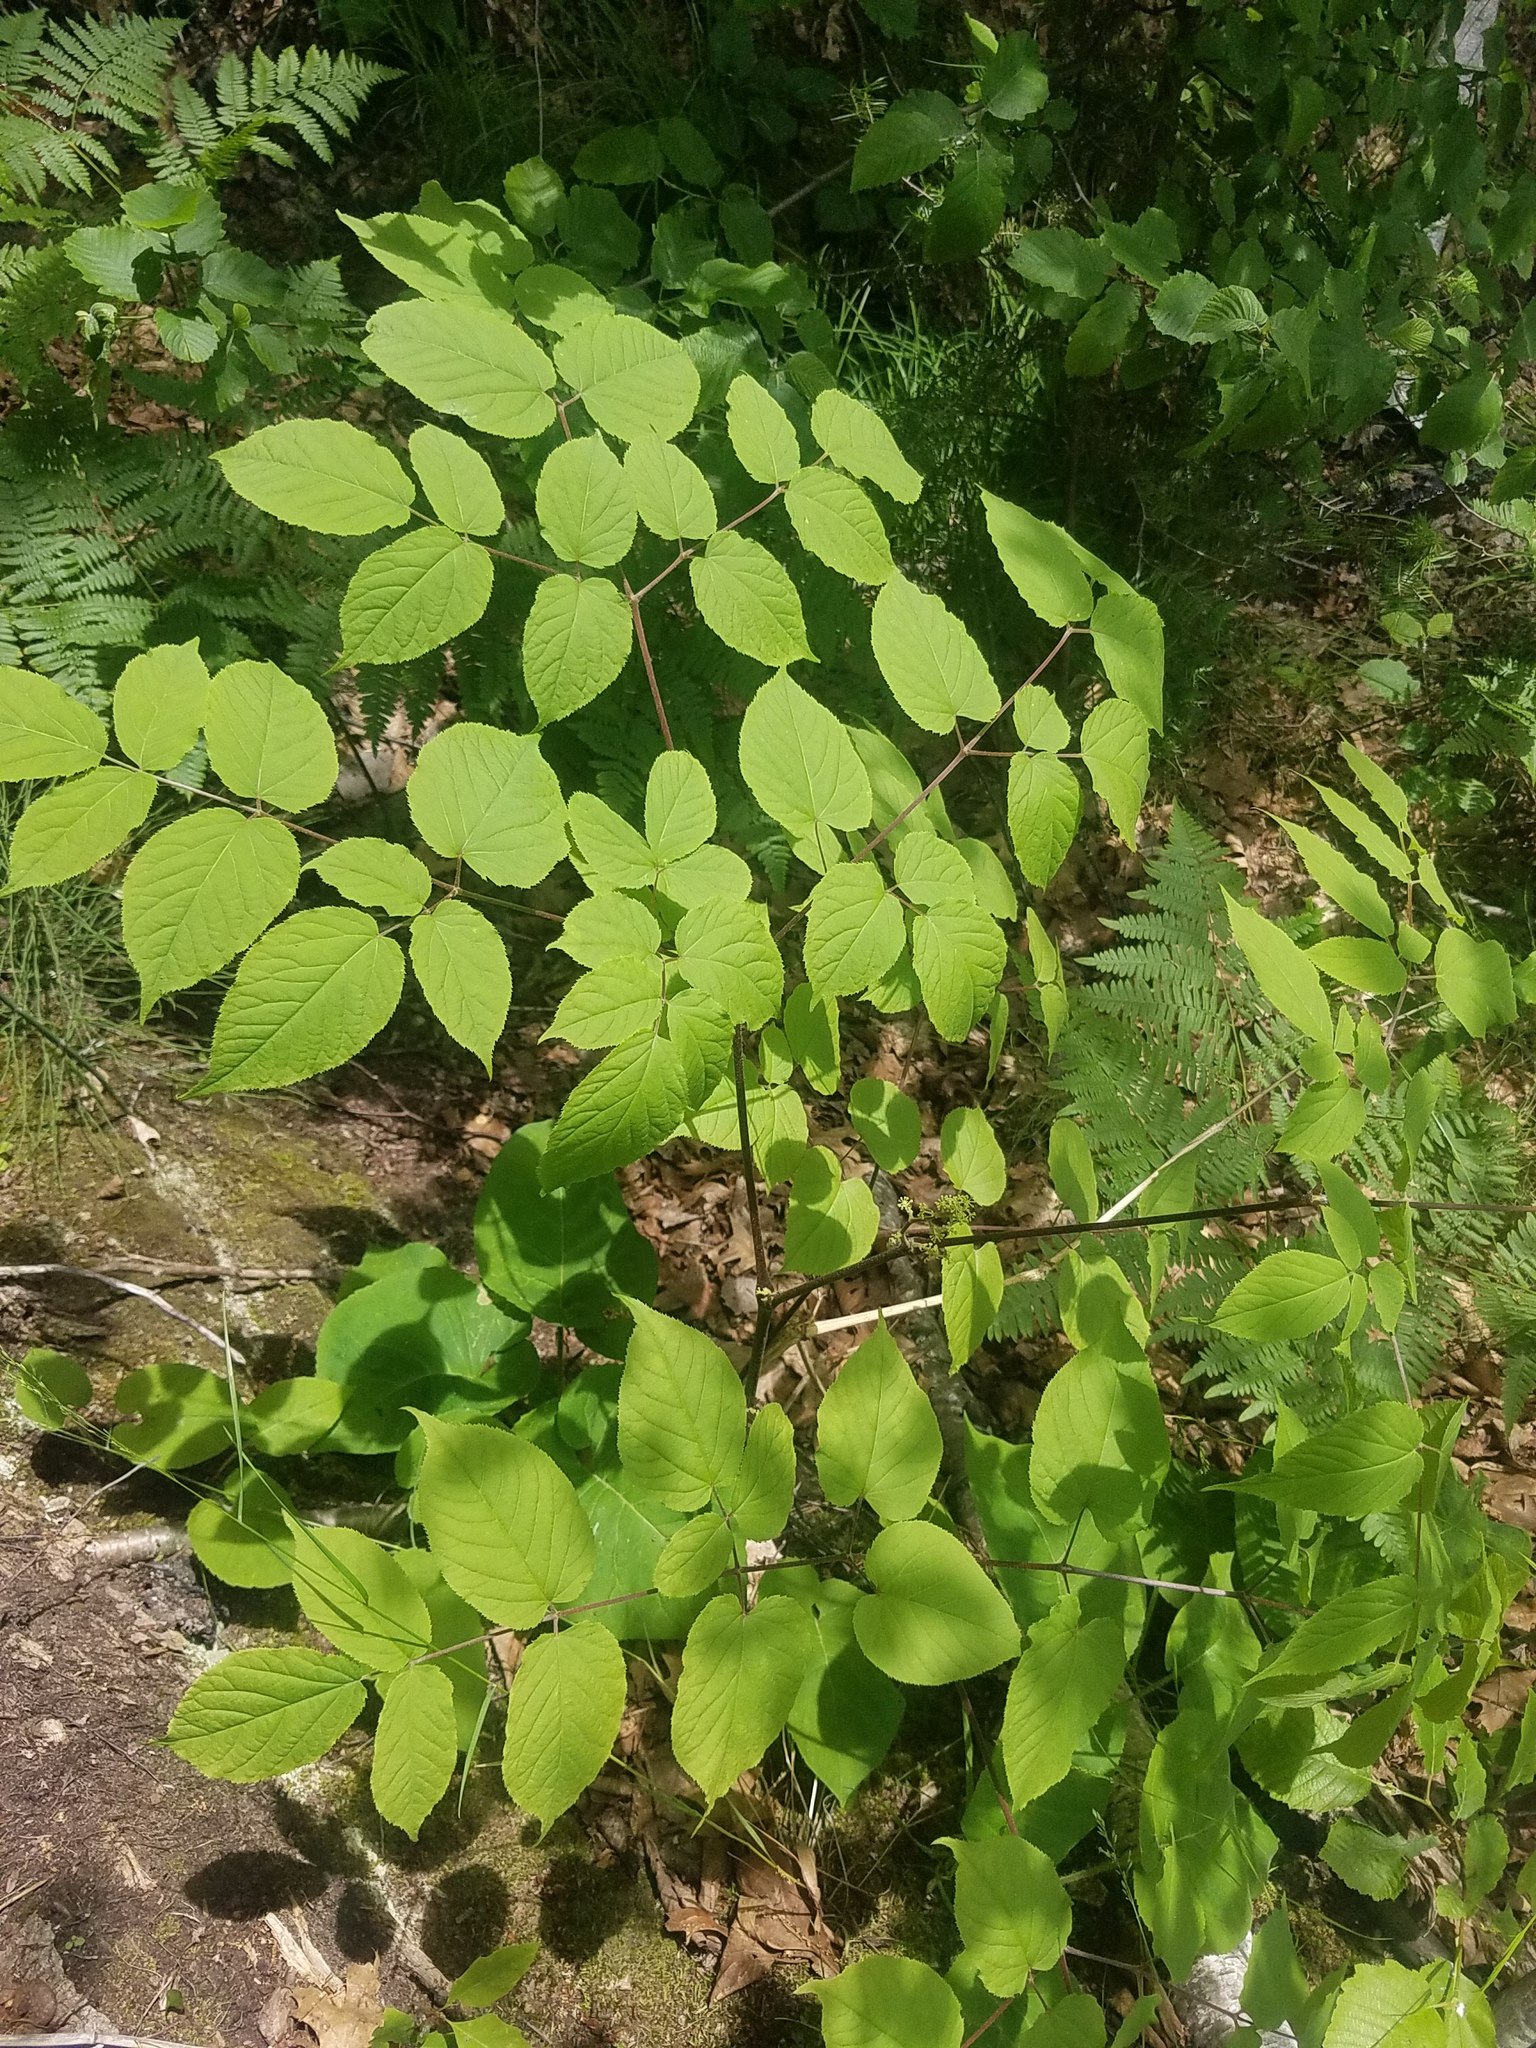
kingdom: Plantae
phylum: Tracheophyta
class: Magnoliopsida
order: Apiales
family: Araliaceae
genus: Aralia
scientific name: Aralia racemosa
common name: American-spikenard
